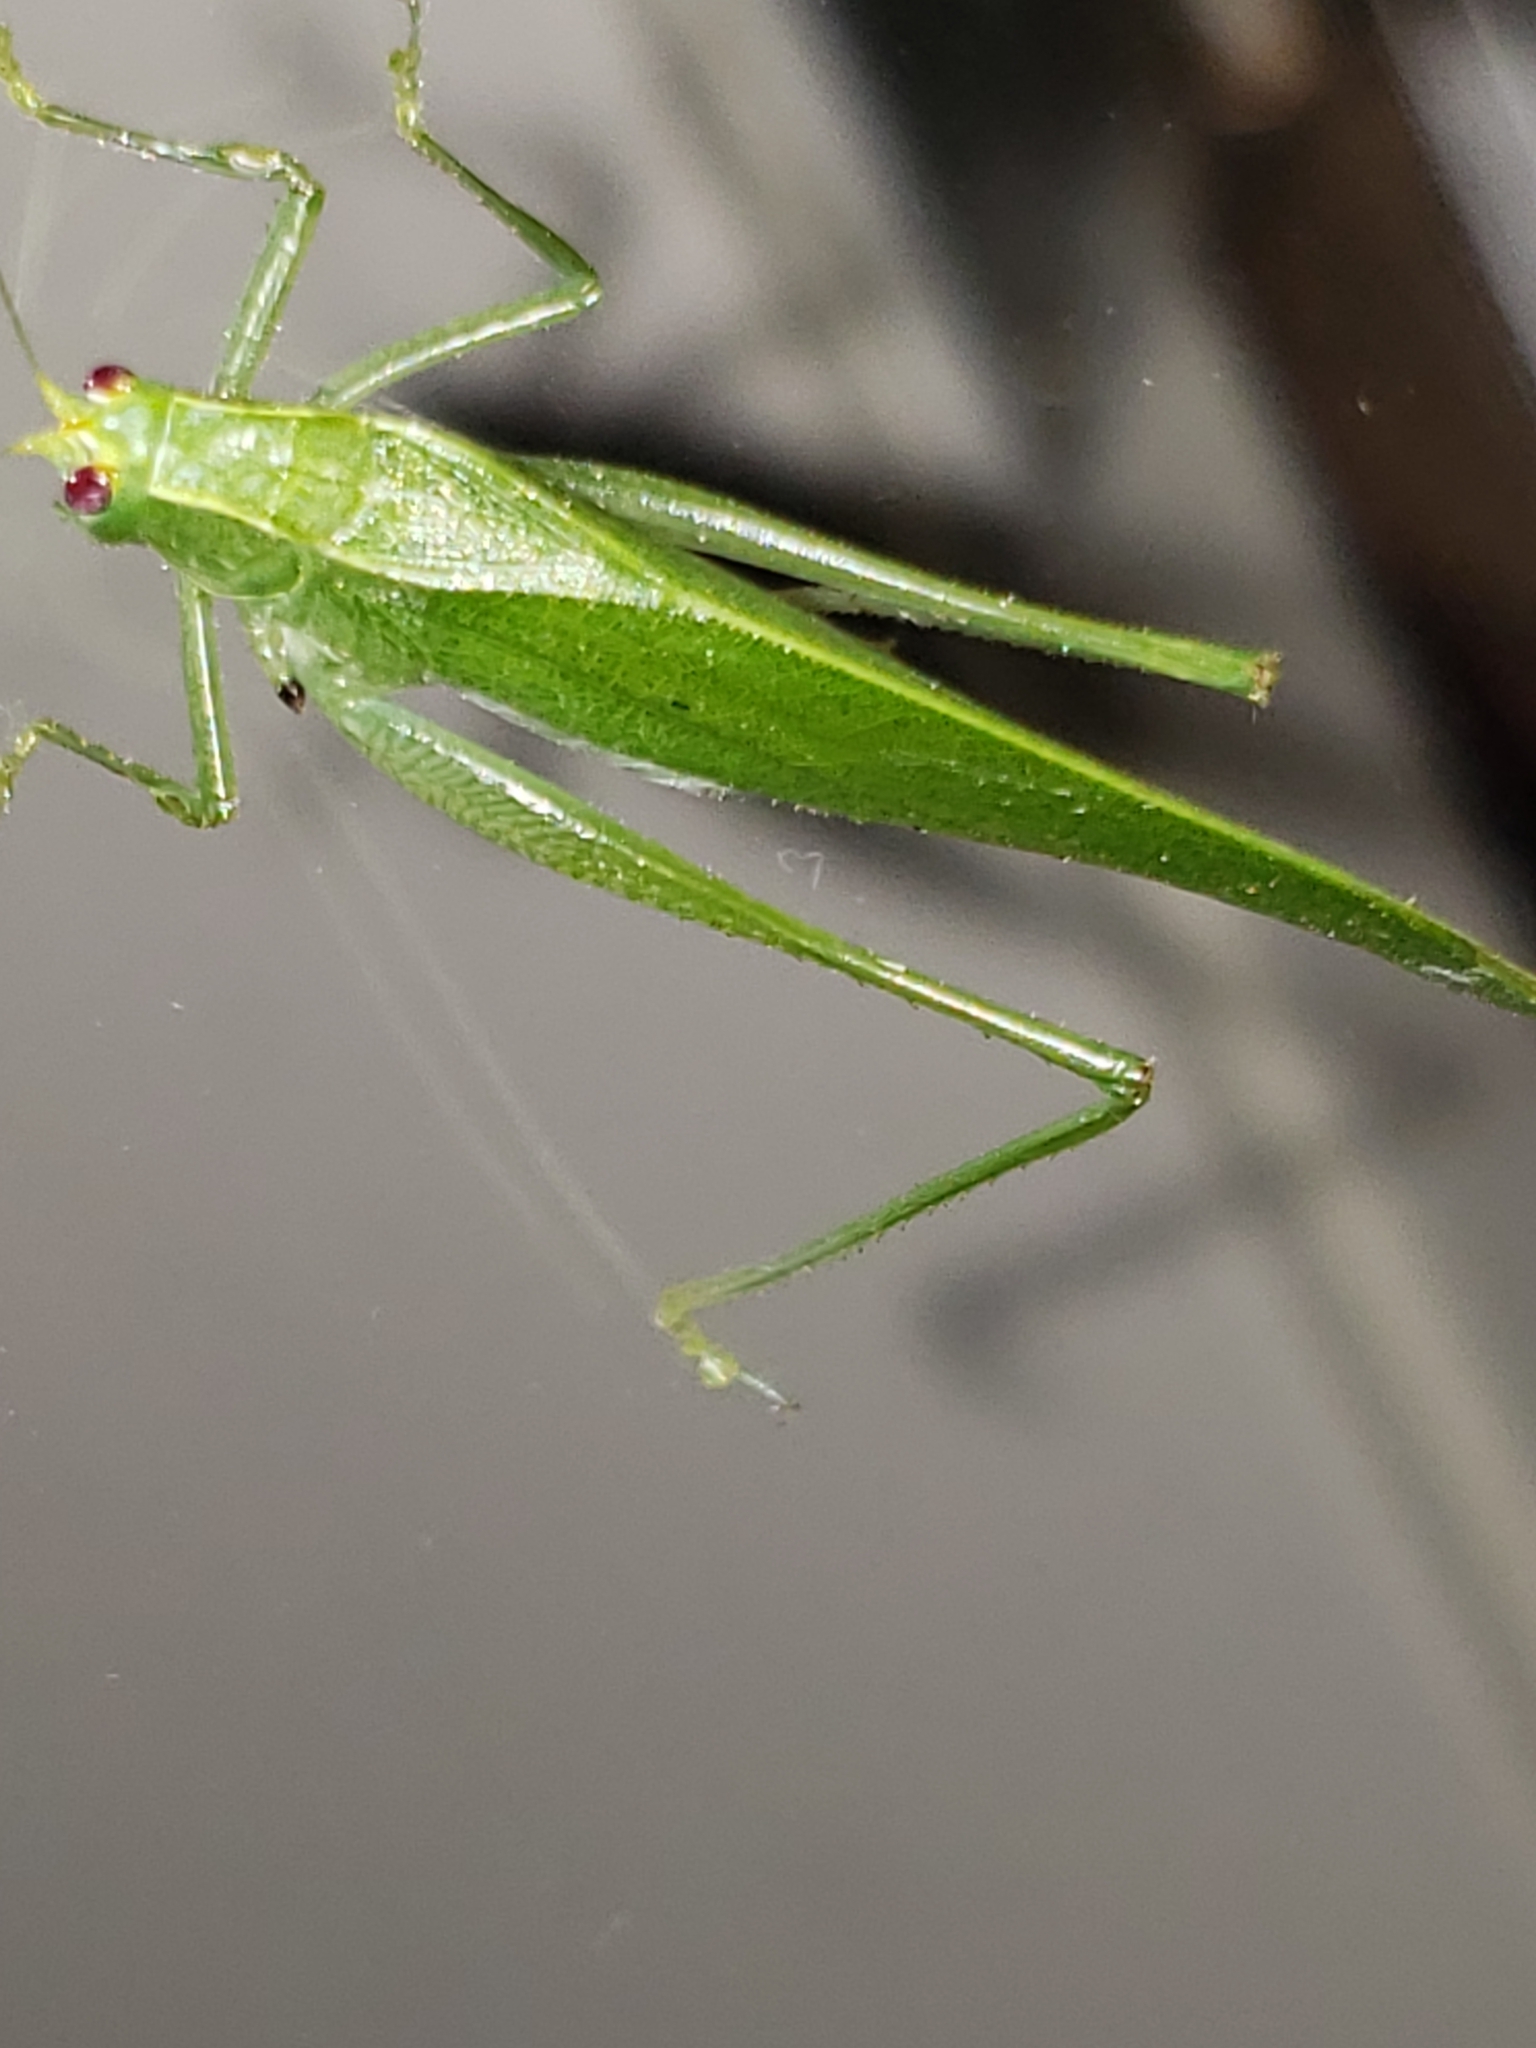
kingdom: Animalia
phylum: Arthropoda
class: Insecta
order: Orthoptera
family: Tettigoniidae
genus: Montezumina
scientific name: Montezumina modesta
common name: Modest katydid
